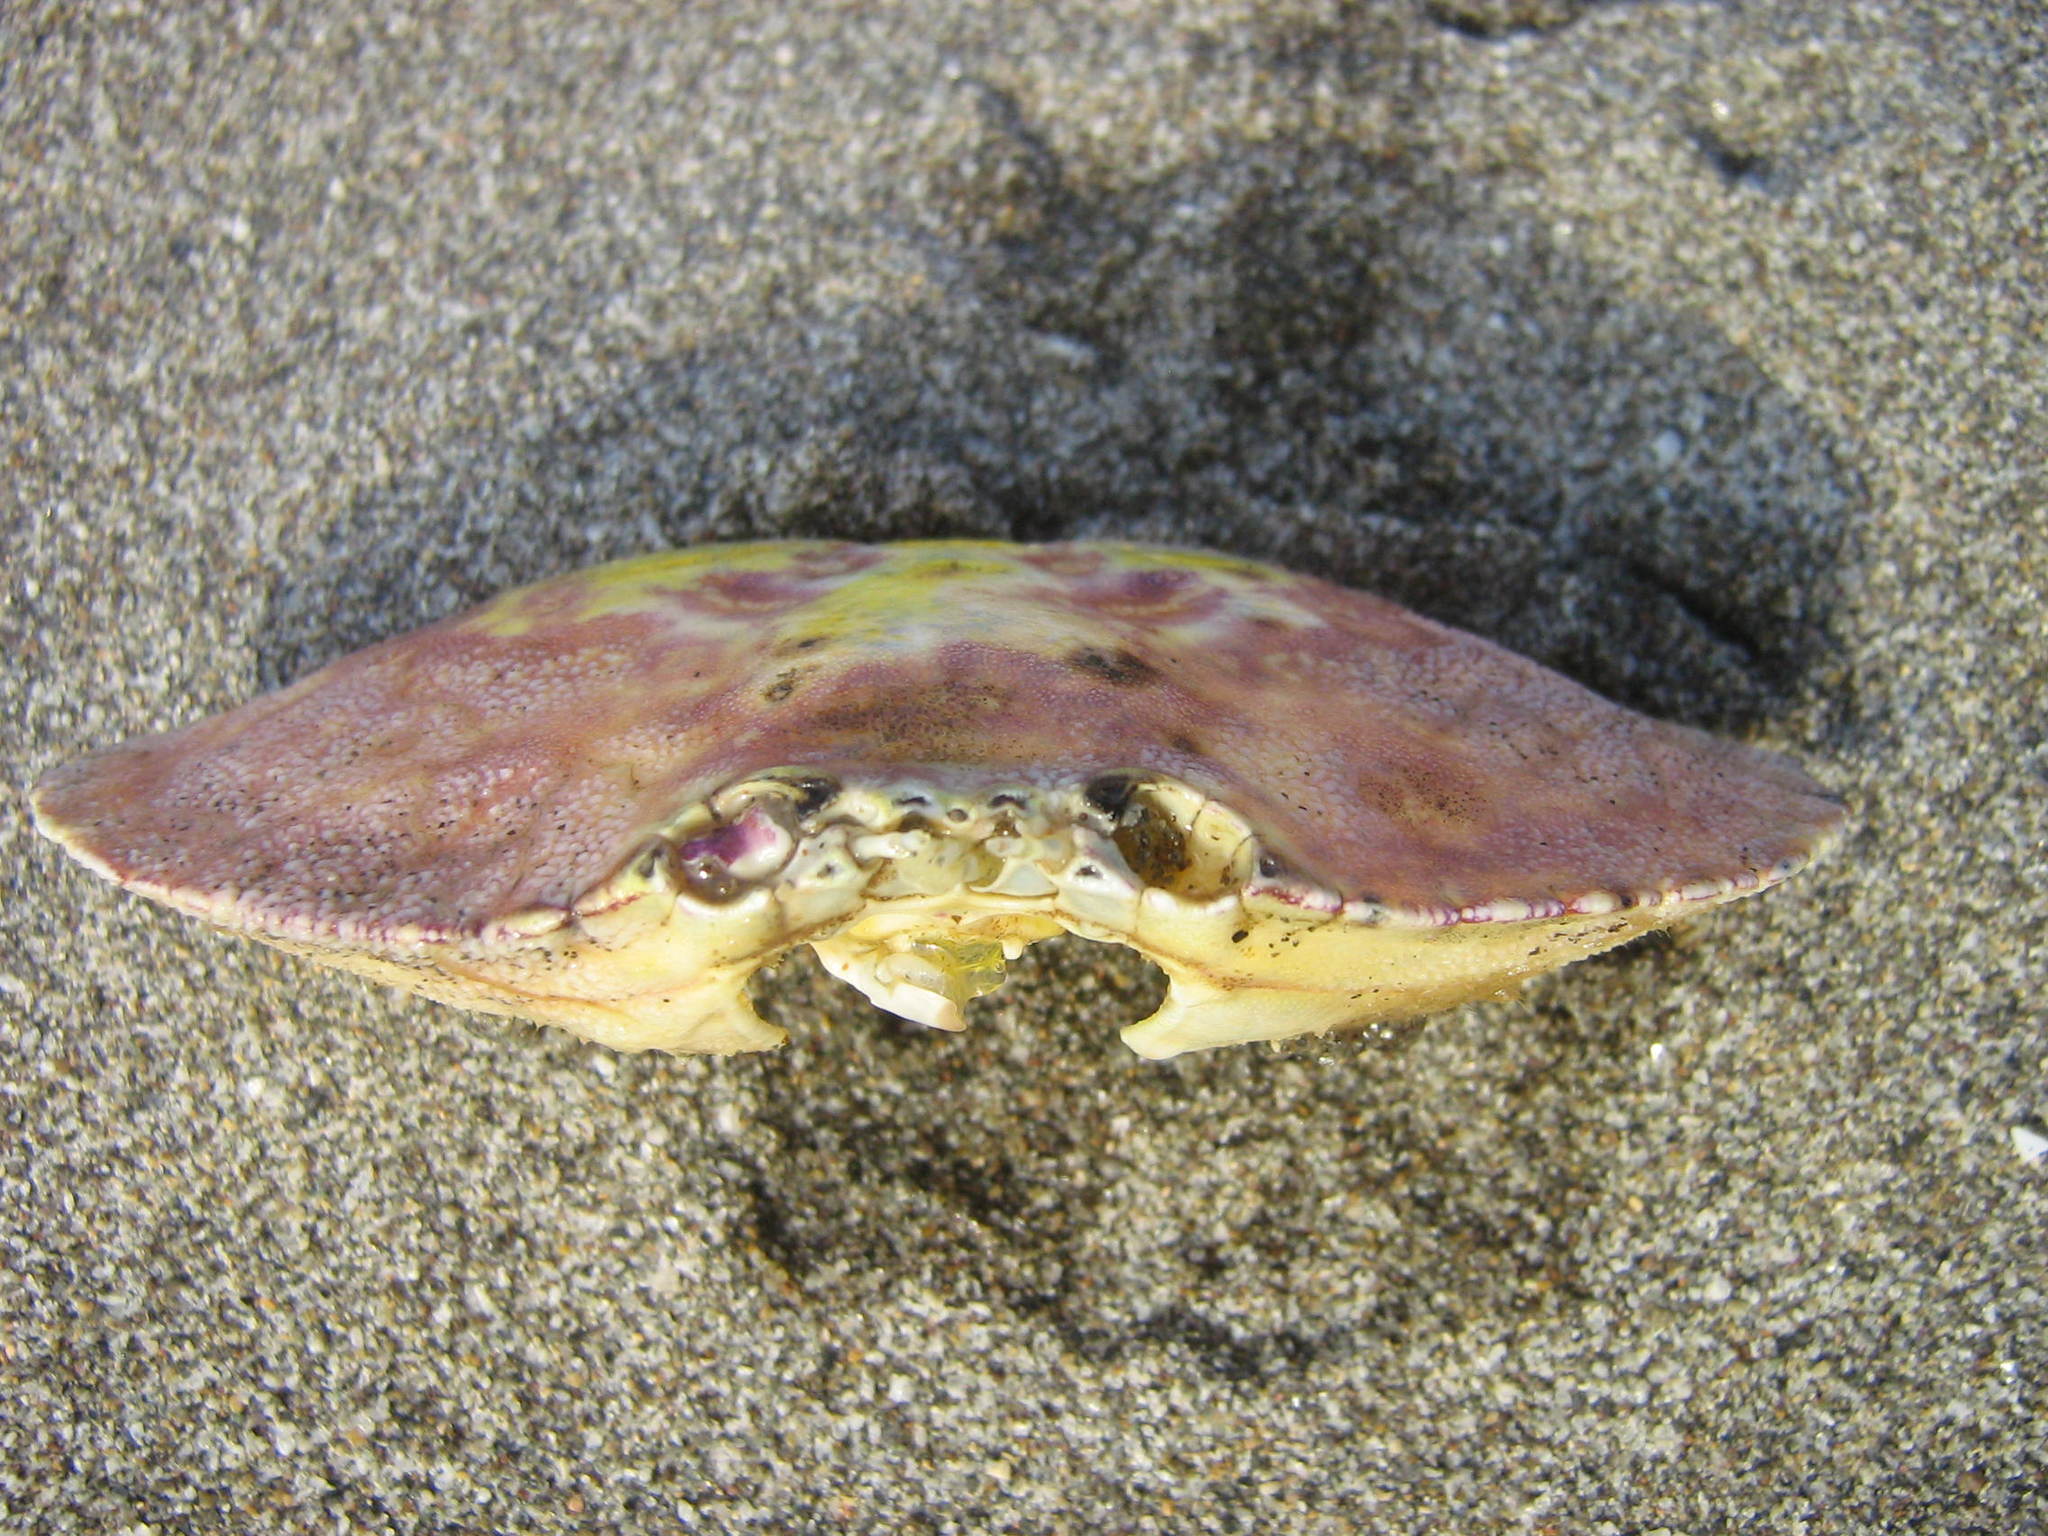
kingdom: Animalia
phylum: Arthropoda
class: Malacostraca
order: Decapoda
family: Cancridae
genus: Cancer
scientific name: Cancer plebejus
